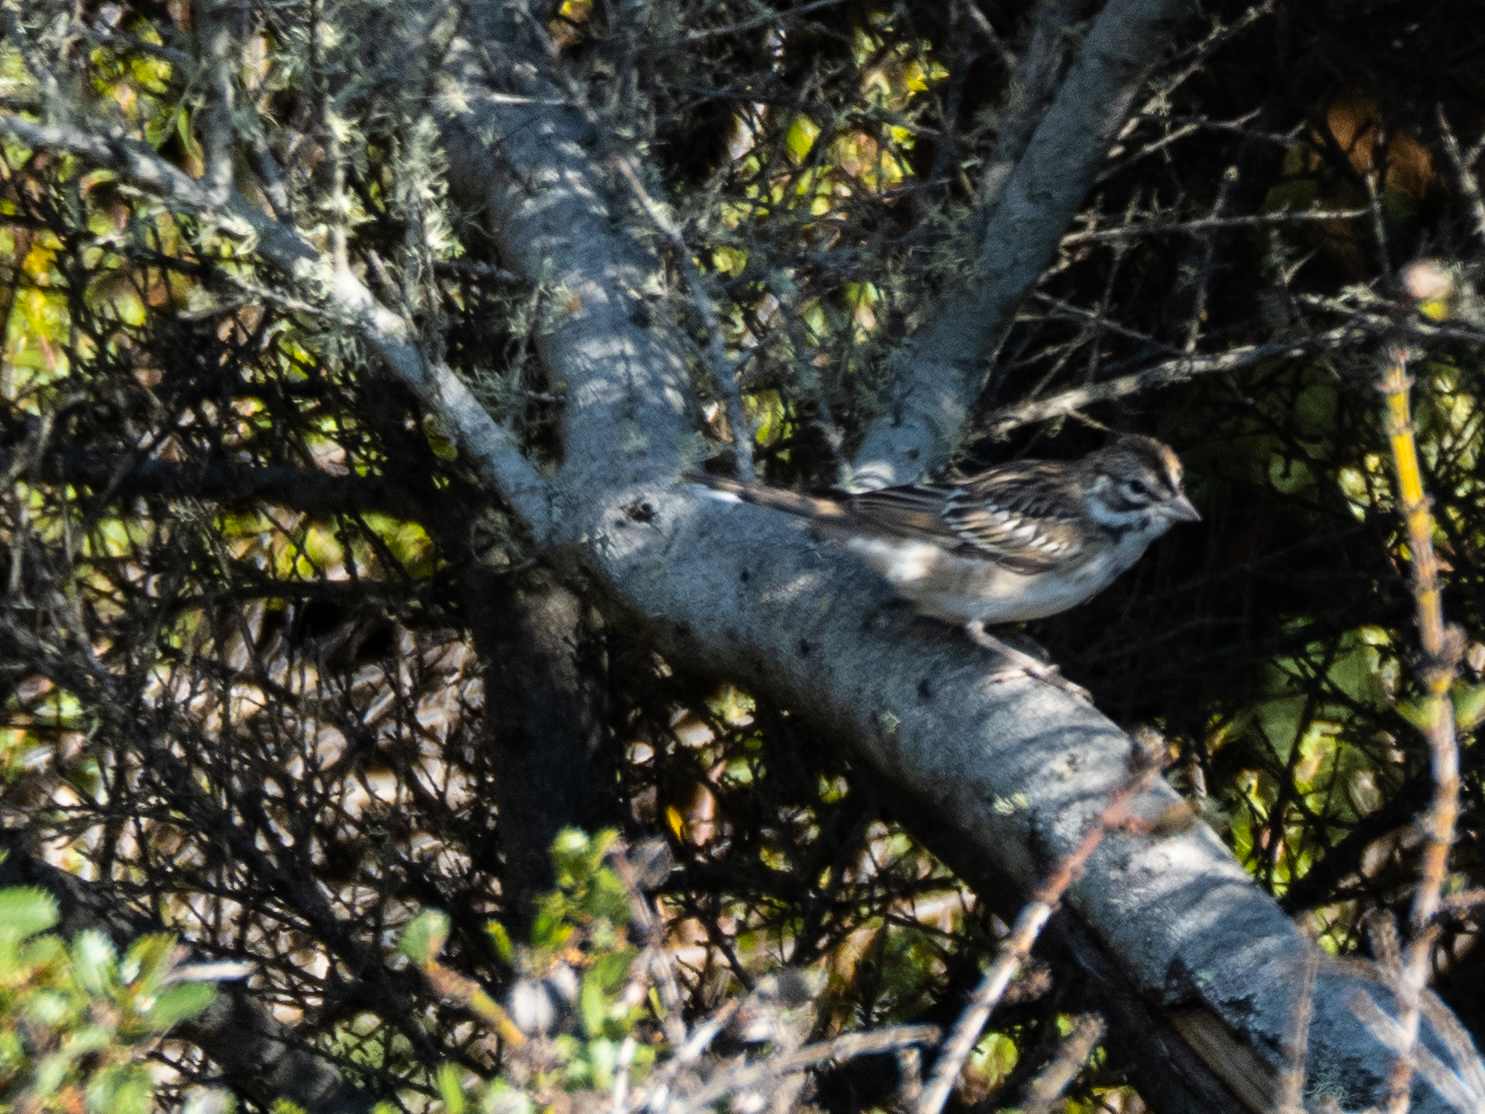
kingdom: Animalia
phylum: Chordata
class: Aves
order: Passeriformes
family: Passerellidae
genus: Chondestes
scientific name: Chondestes grammacus
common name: Lark sparrow
